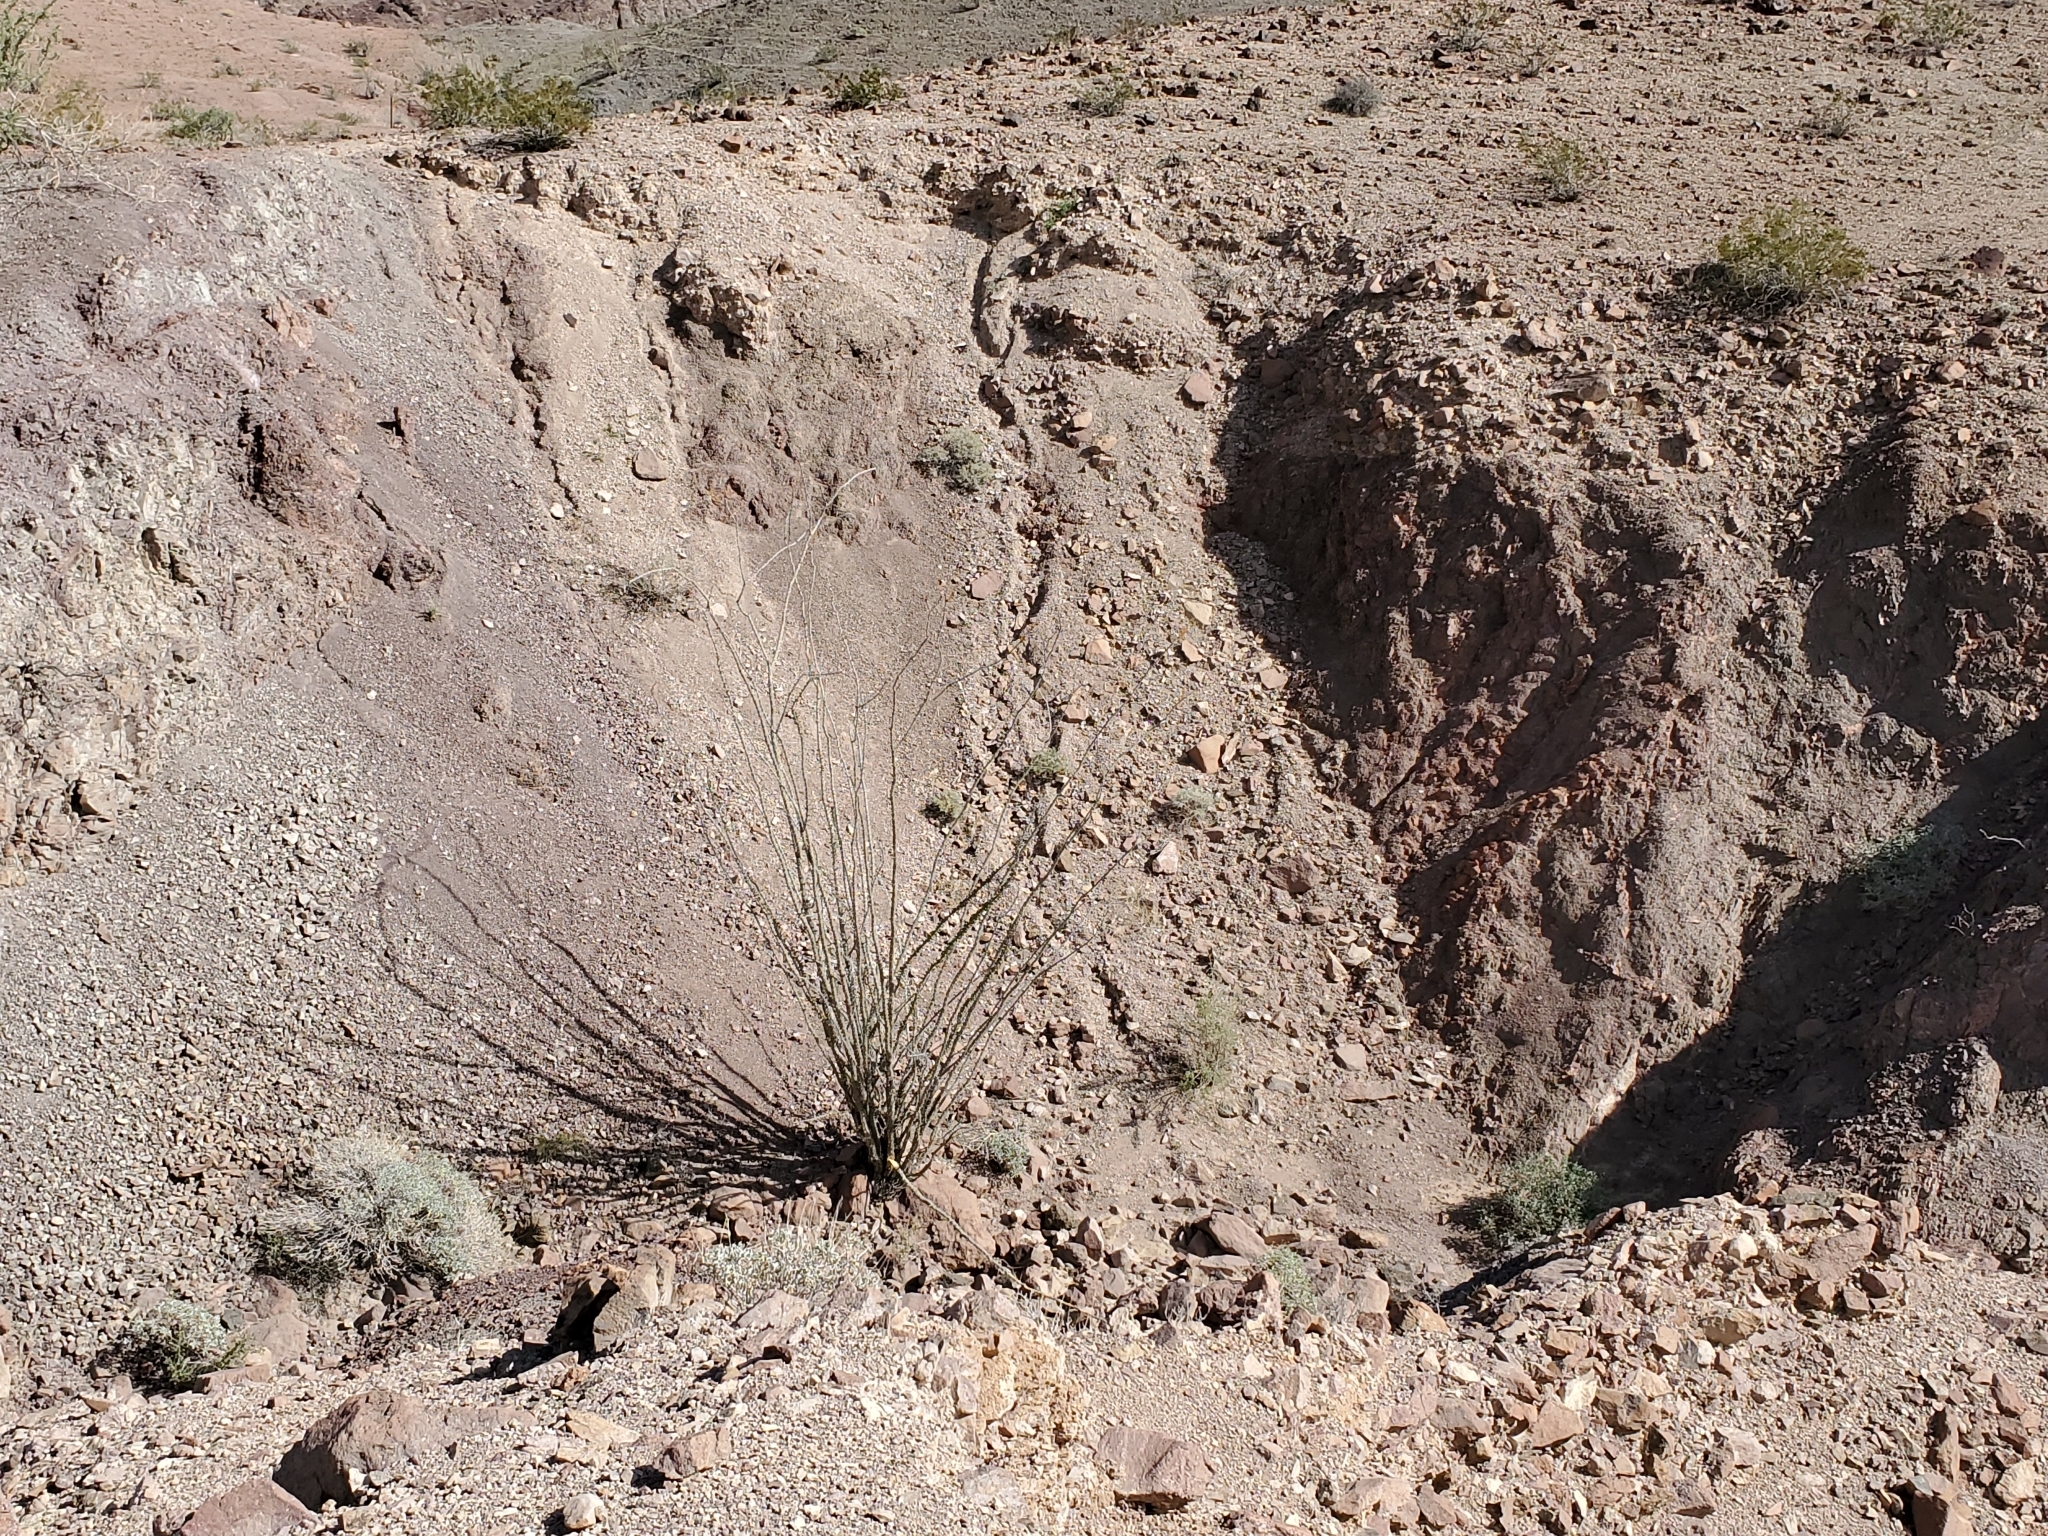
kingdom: Plantae
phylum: Tracheophyta
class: Magnoliopsida
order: Ericales
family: Fouquieriaceae
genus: Fouquieria
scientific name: Fouquieria splendens
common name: Vine-cactus
